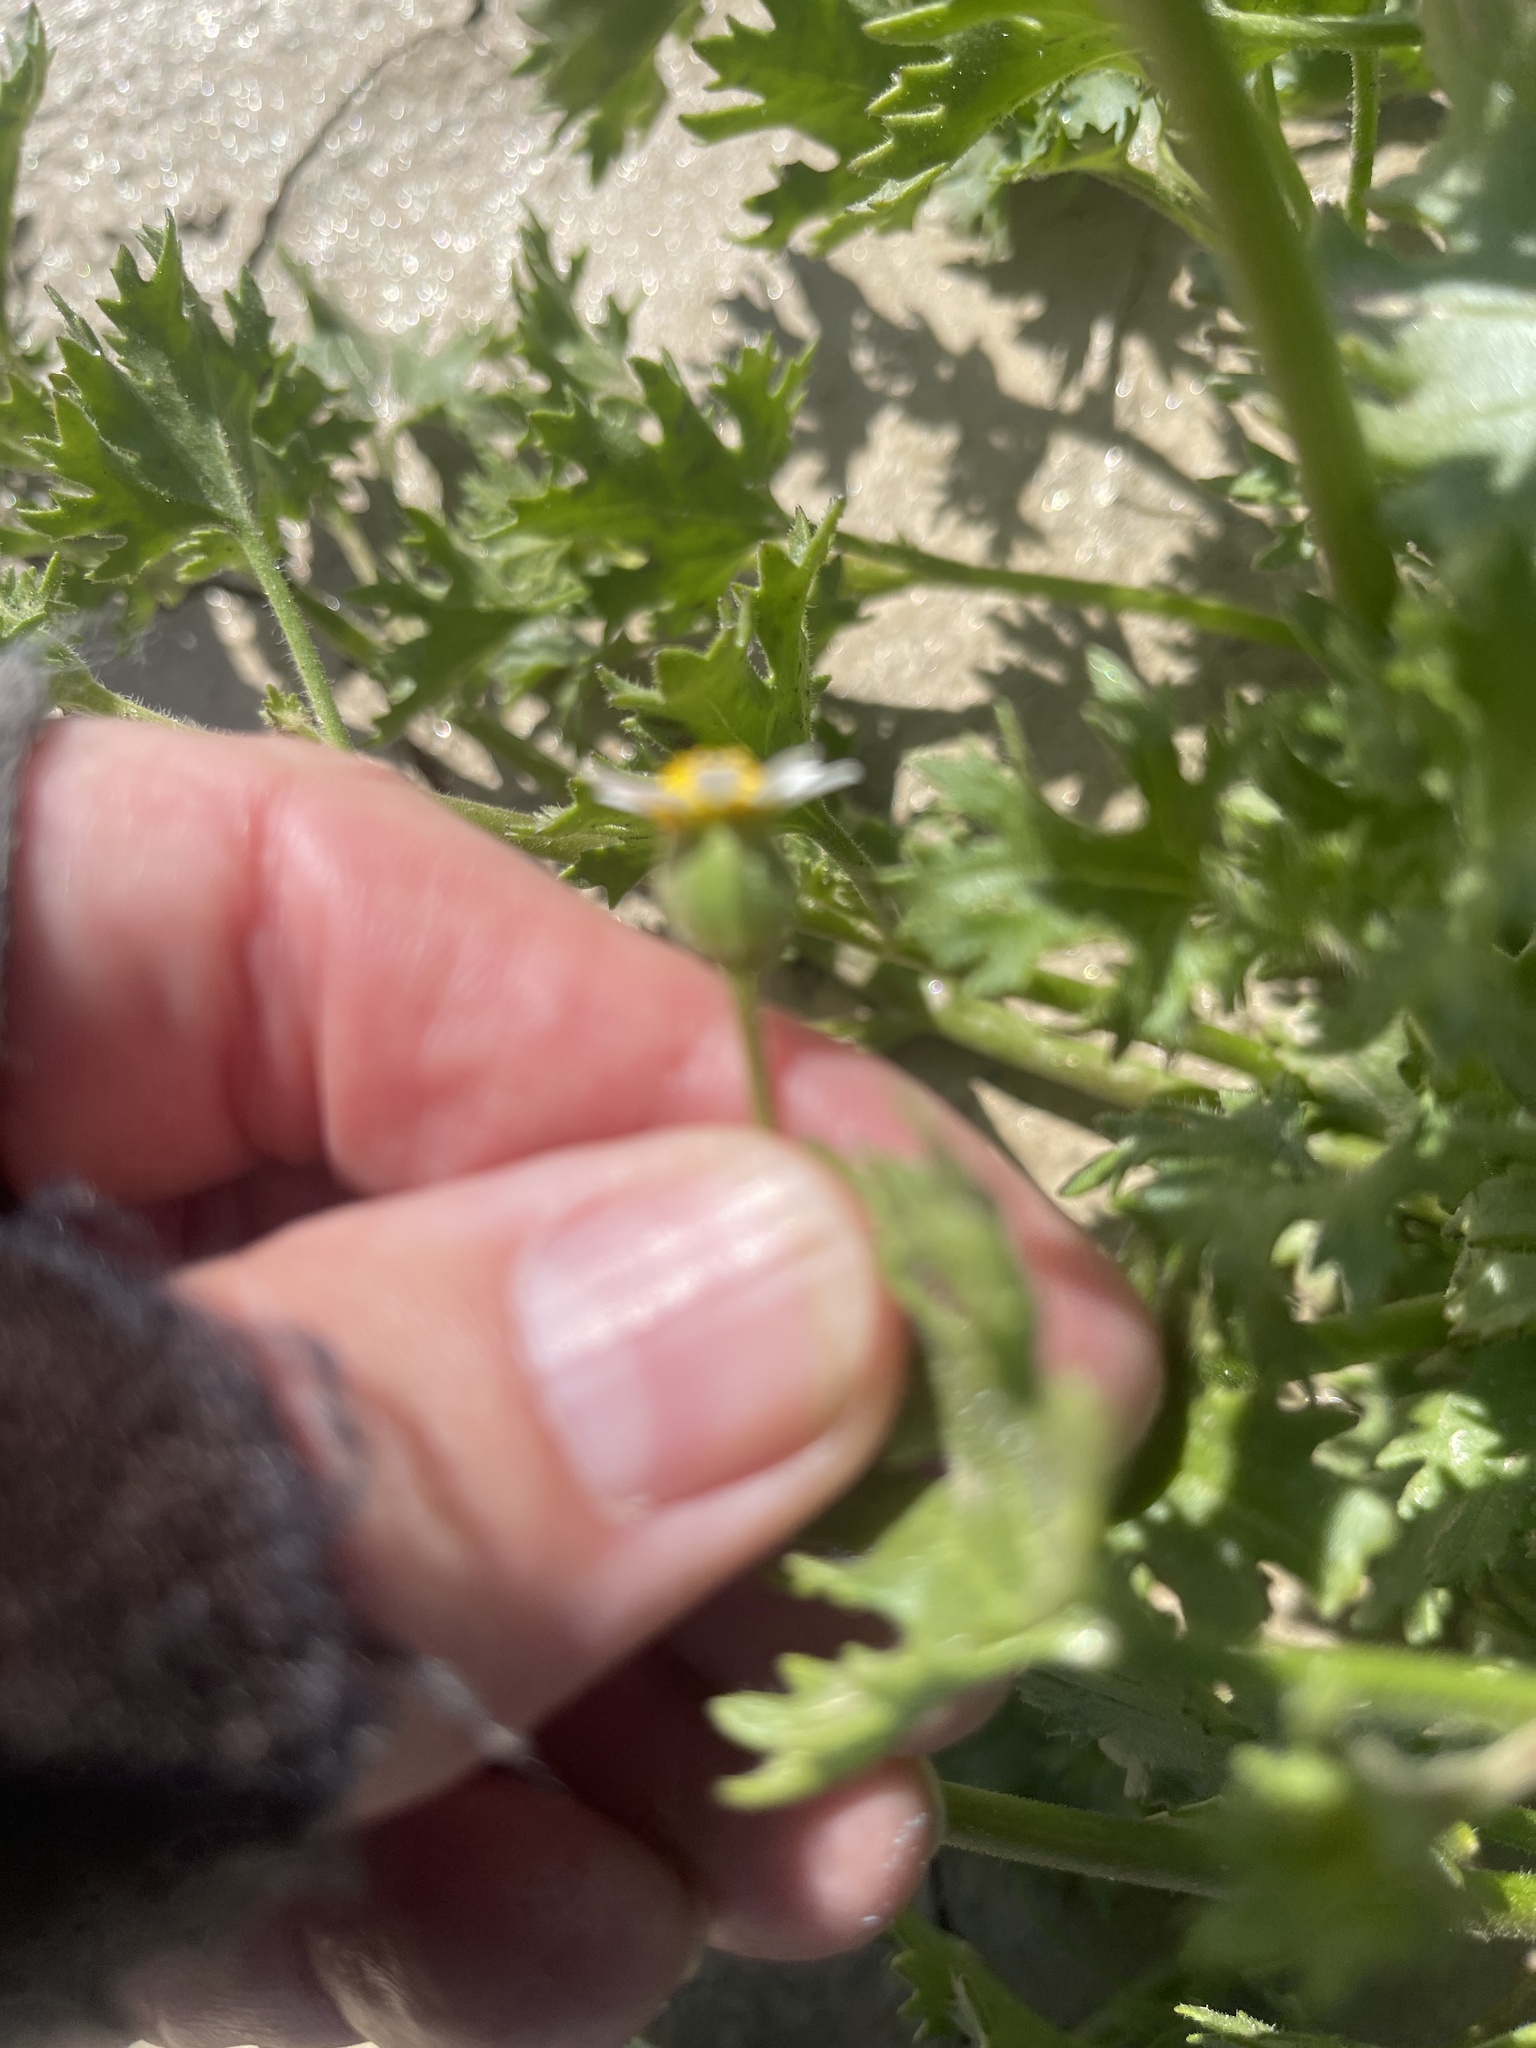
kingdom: Plantae
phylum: Tracheophyta
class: Magnoliopsida
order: Asterales
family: Asteraceae
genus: Laphamia
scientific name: Laphamia emoryi
